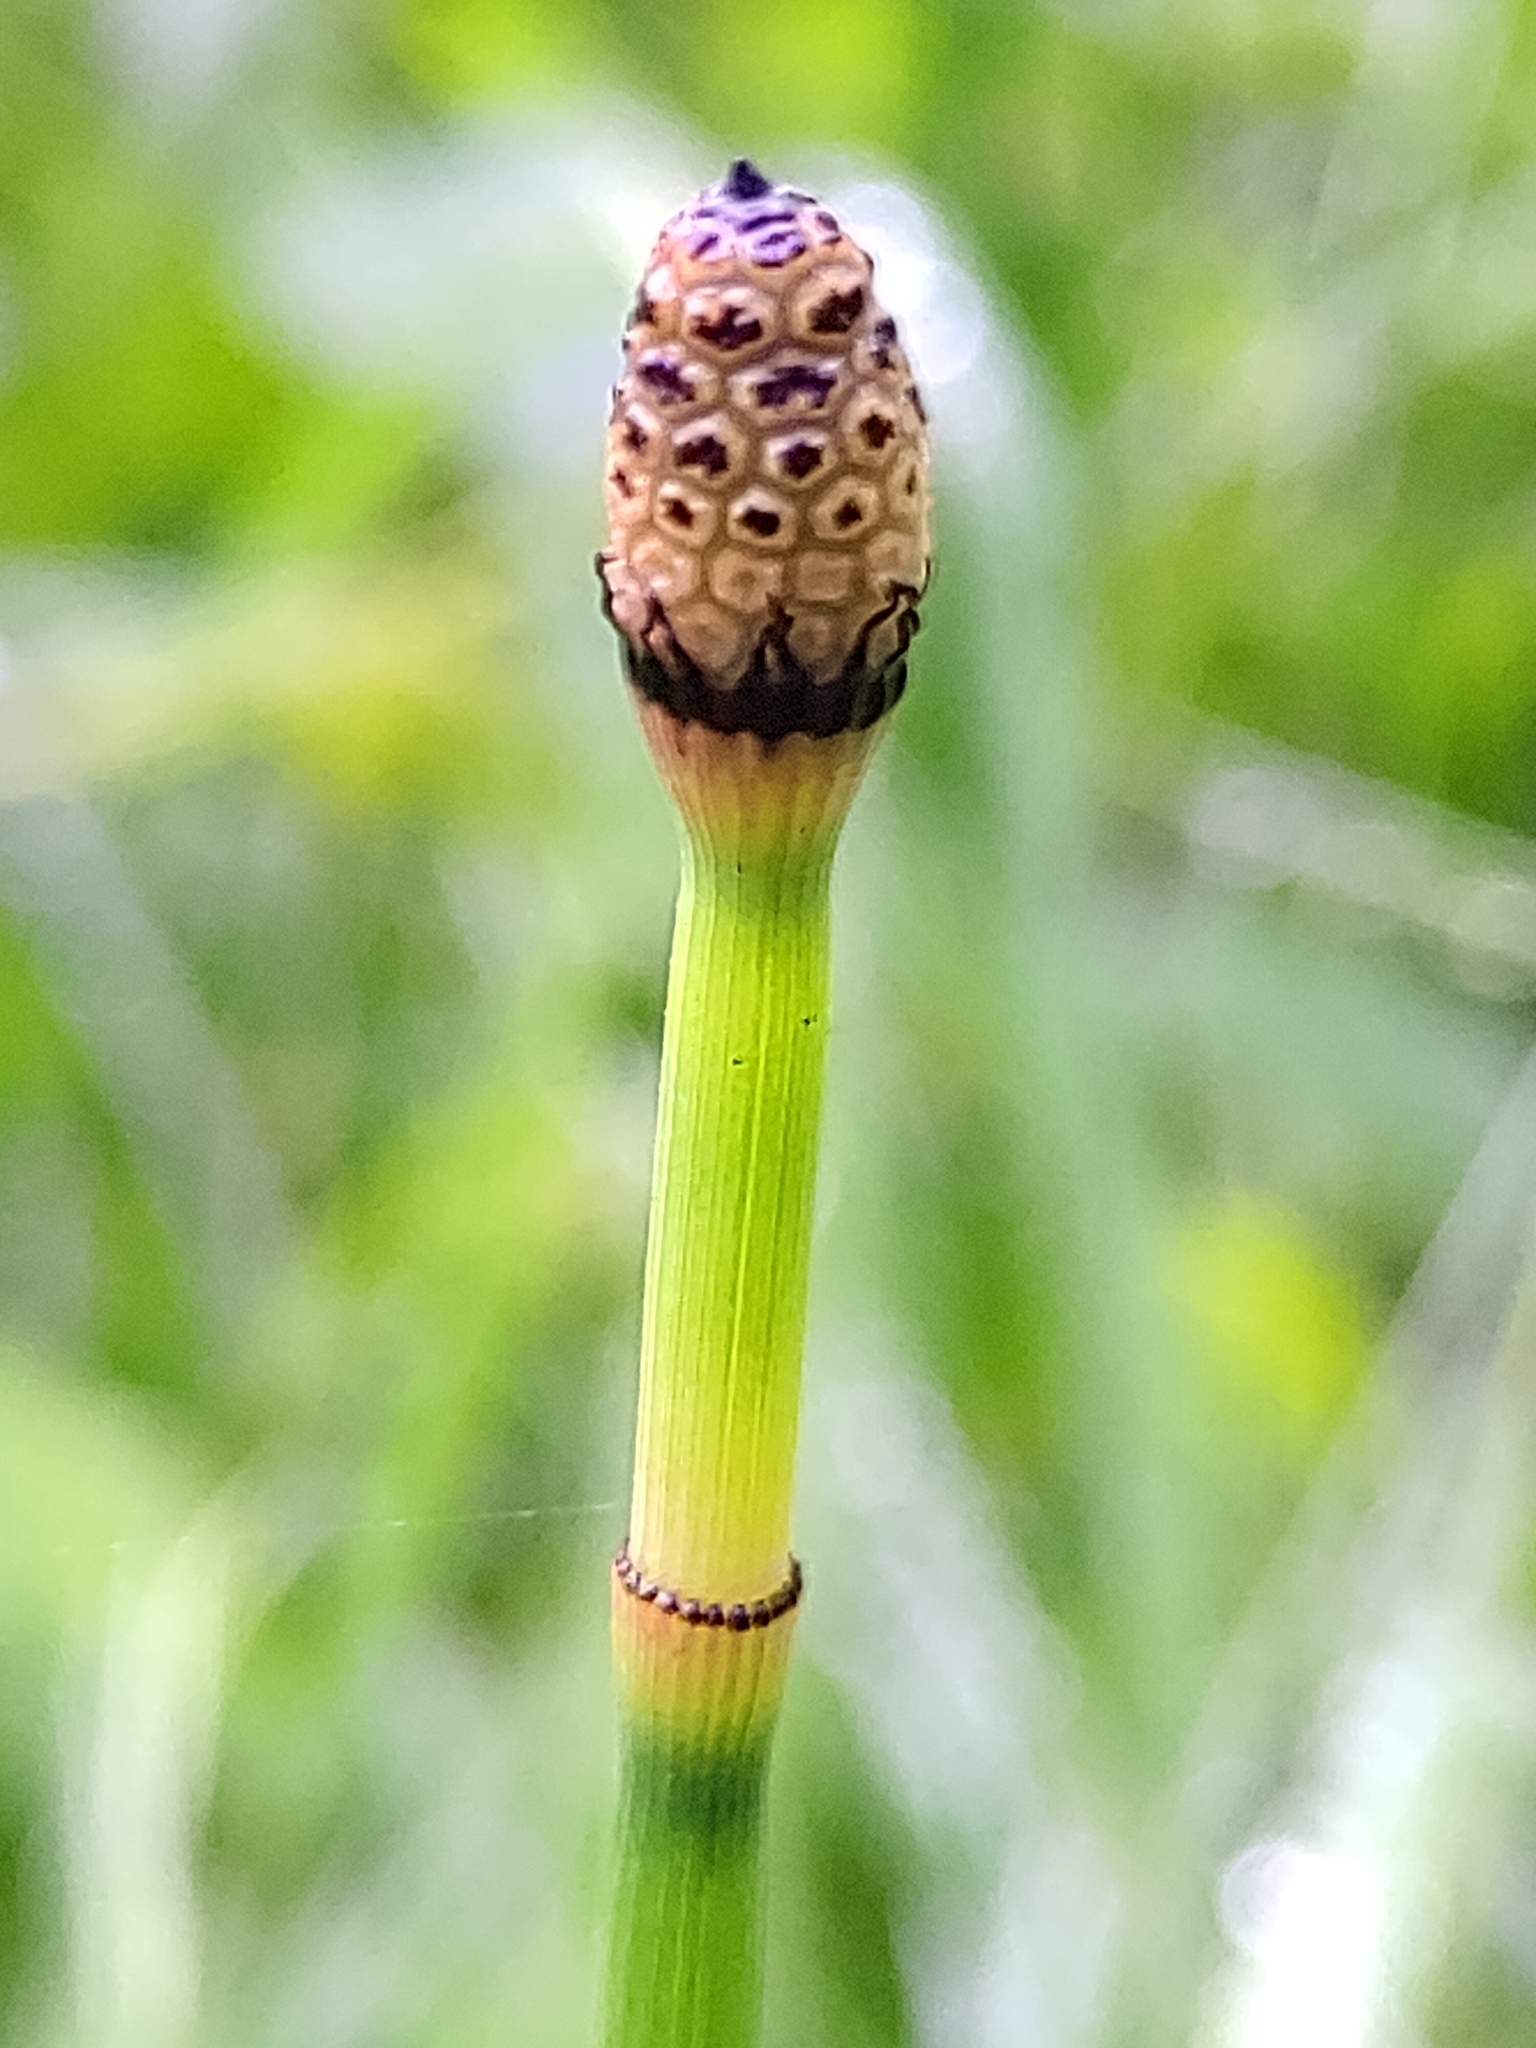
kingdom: Plantae
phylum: Tracheophyta
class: Polypodiopsida
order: Equisetales
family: Equisetaceae
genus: Equisetum
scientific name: Equisetum hyemale
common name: Rough horsetail
